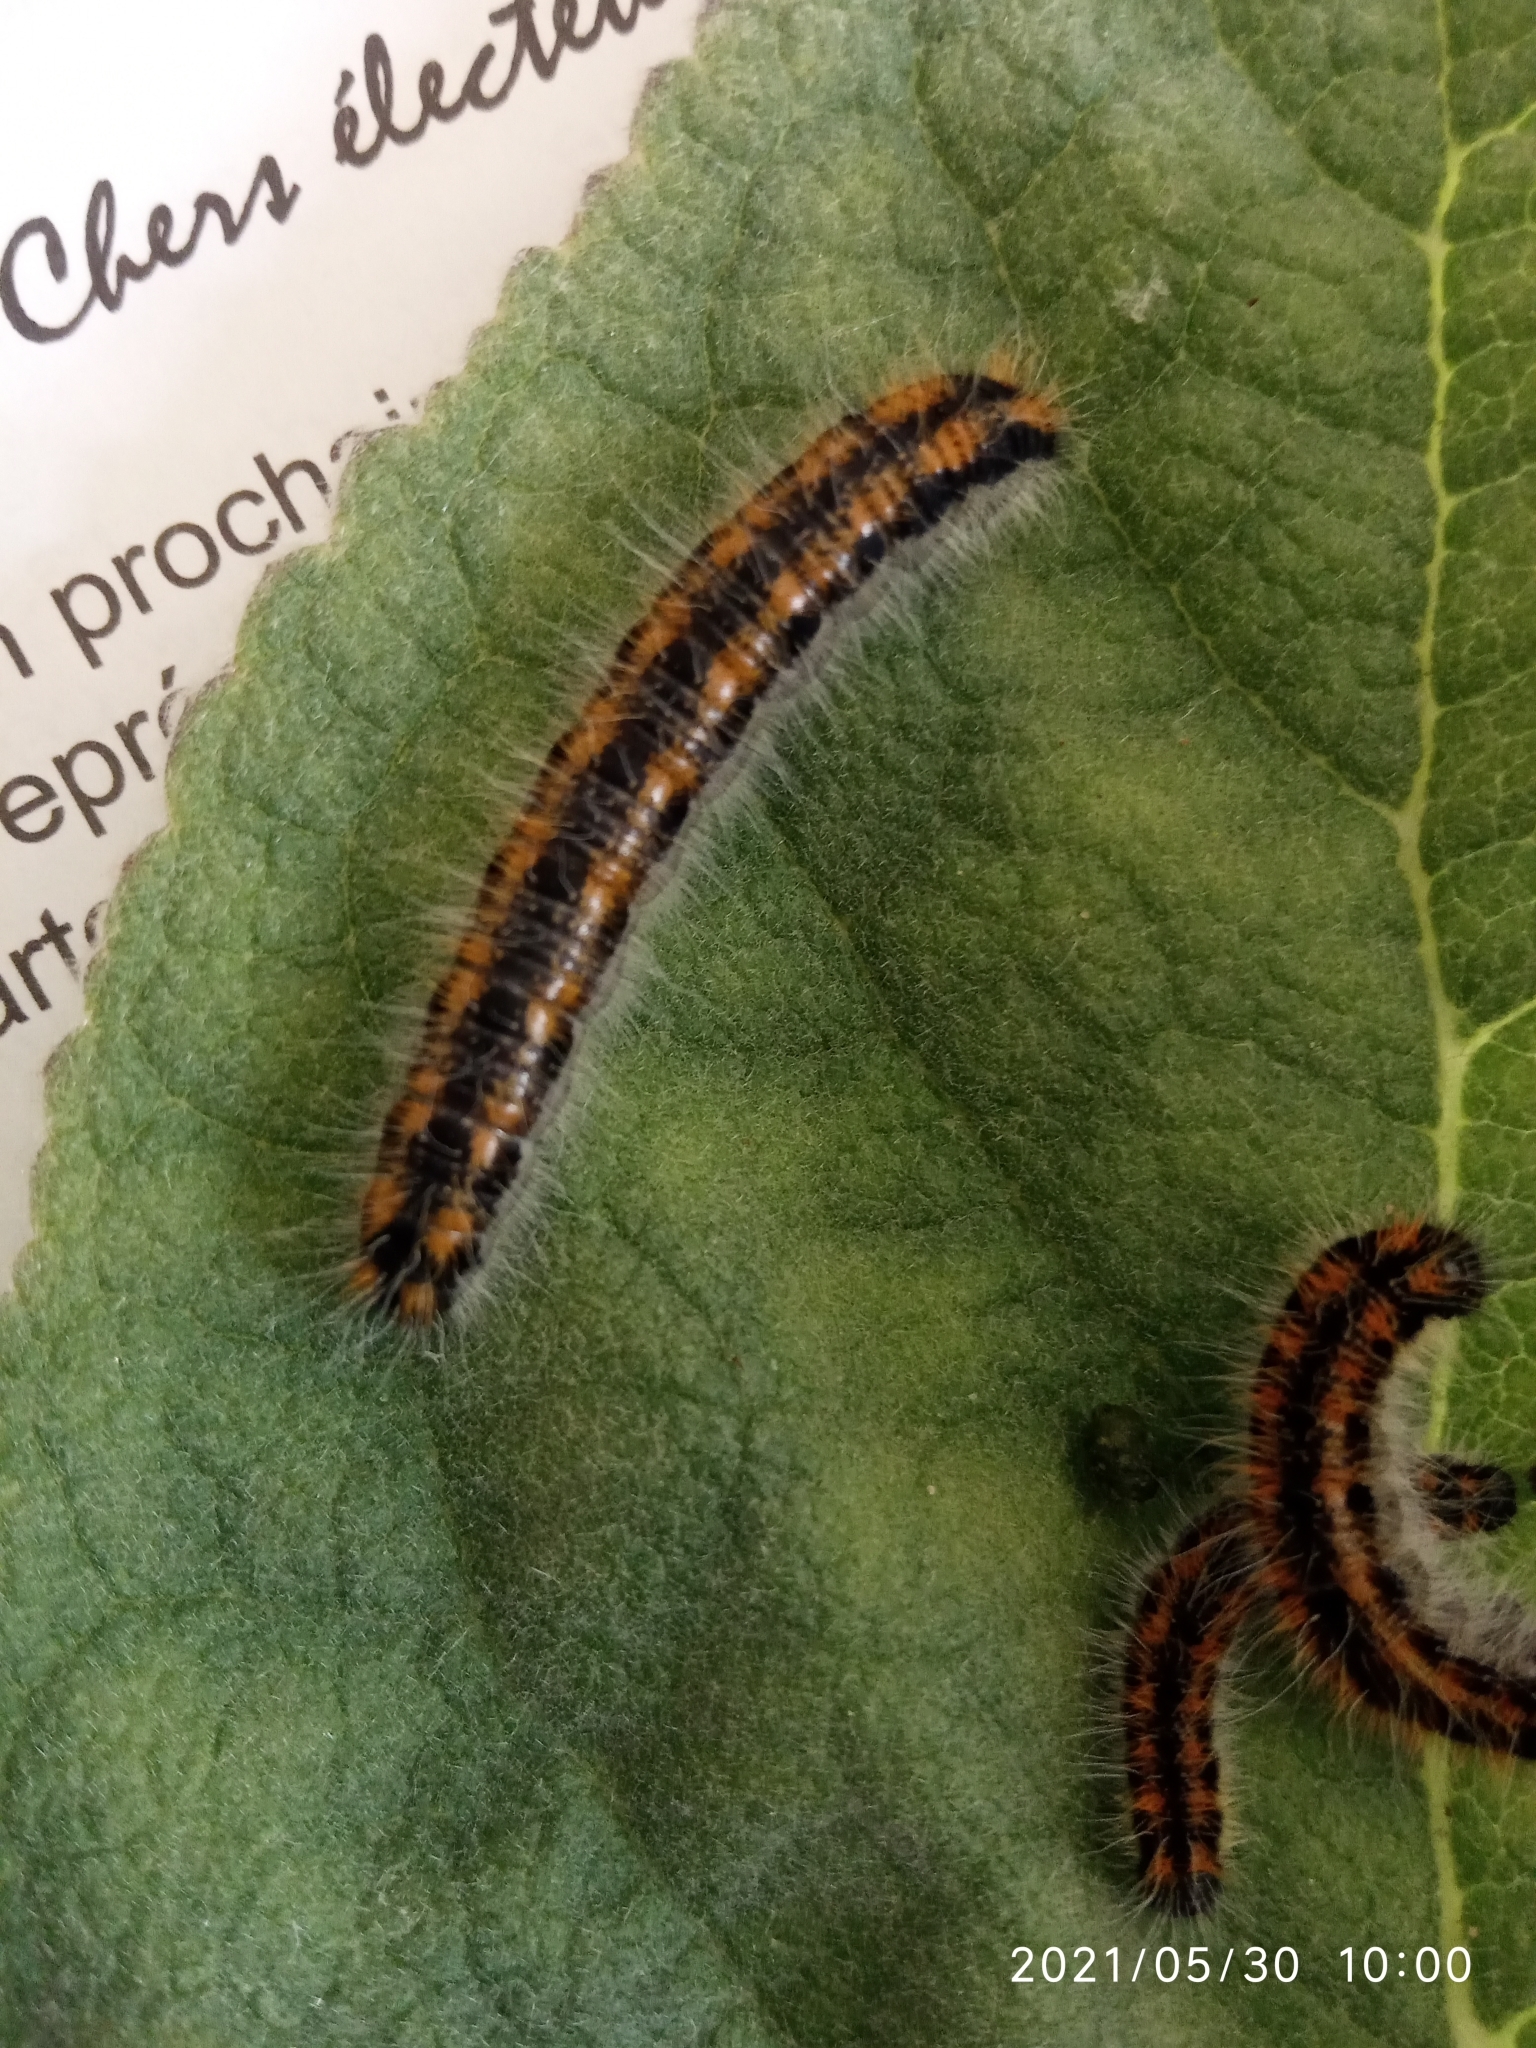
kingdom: Animalia
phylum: Arthropoda
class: Insecta
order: Lepidoptera
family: Pieridae
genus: Aporia
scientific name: Aporia crataegi
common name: Black-veined white
